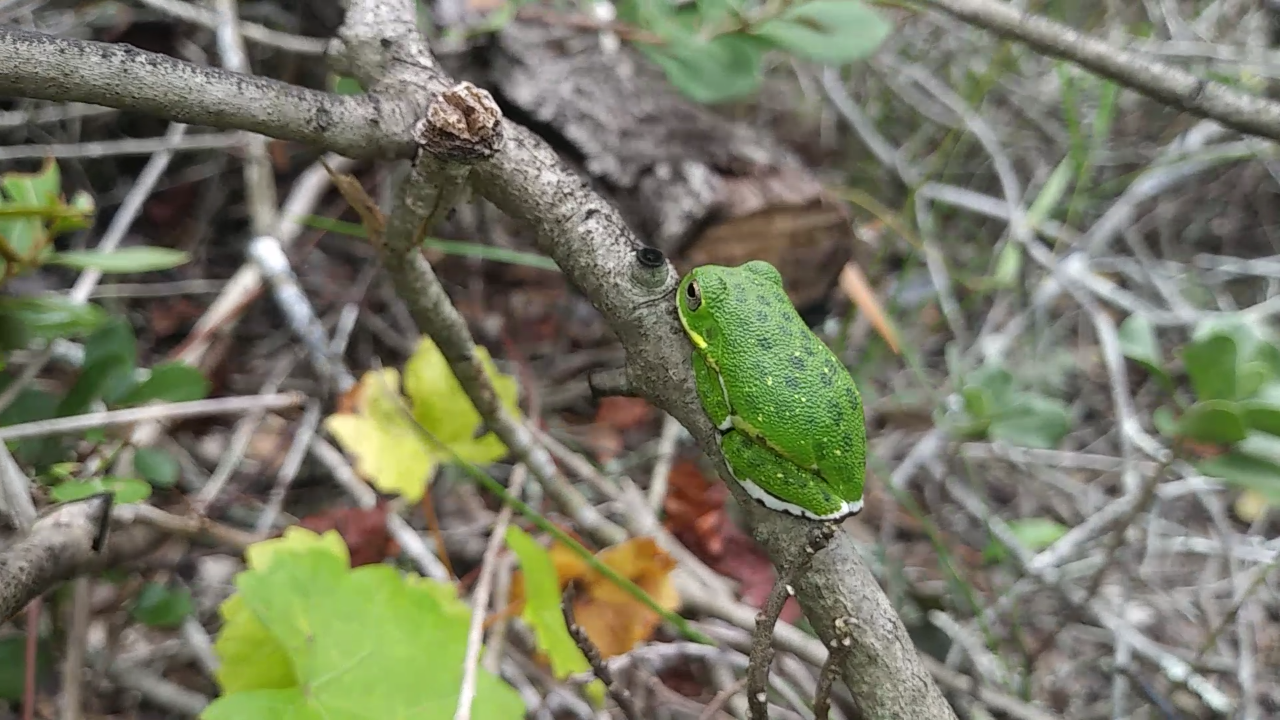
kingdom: Animalia
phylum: Chordata
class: Amphibia
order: Anura
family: Hylidae
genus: Dryophytes
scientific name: Dryophytes gratiosus
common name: Barking treefrog
